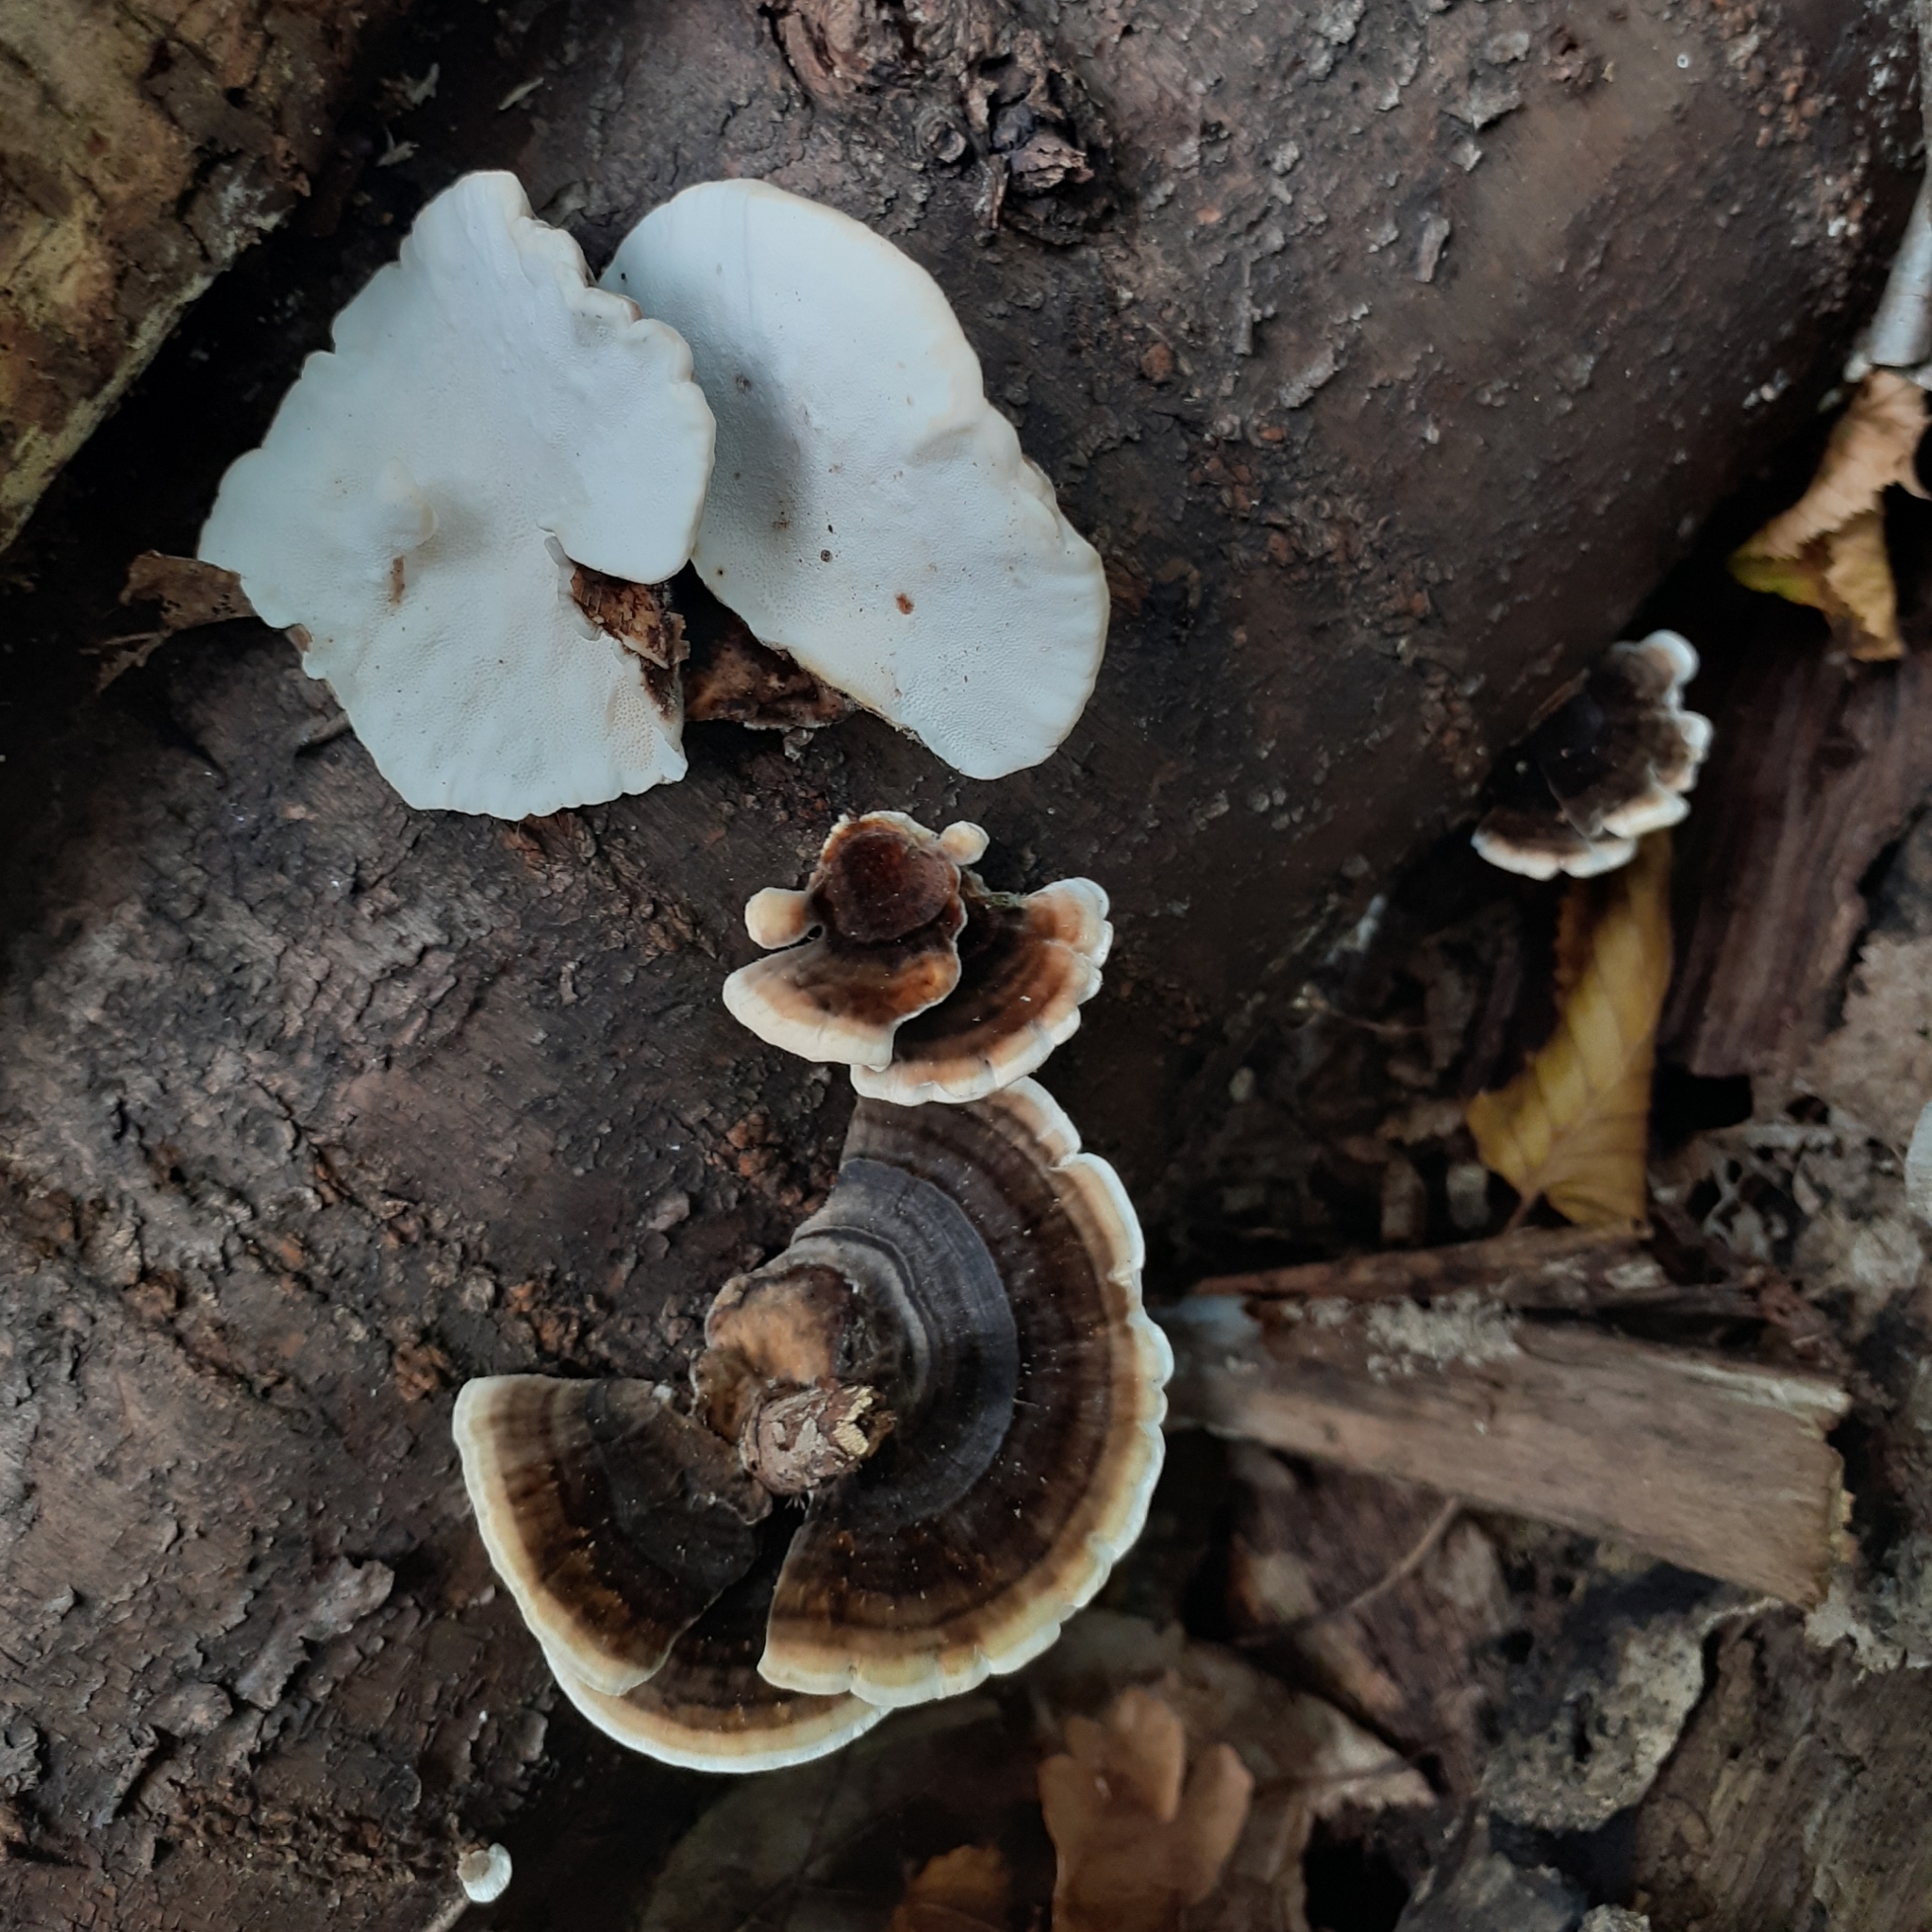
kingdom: Fungi
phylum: Basidiomycota
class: Agaricomycetes
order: Polyporales
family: Polyporaceae
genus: Trametes
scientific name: Trametes versicolor
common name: Turkeytail
